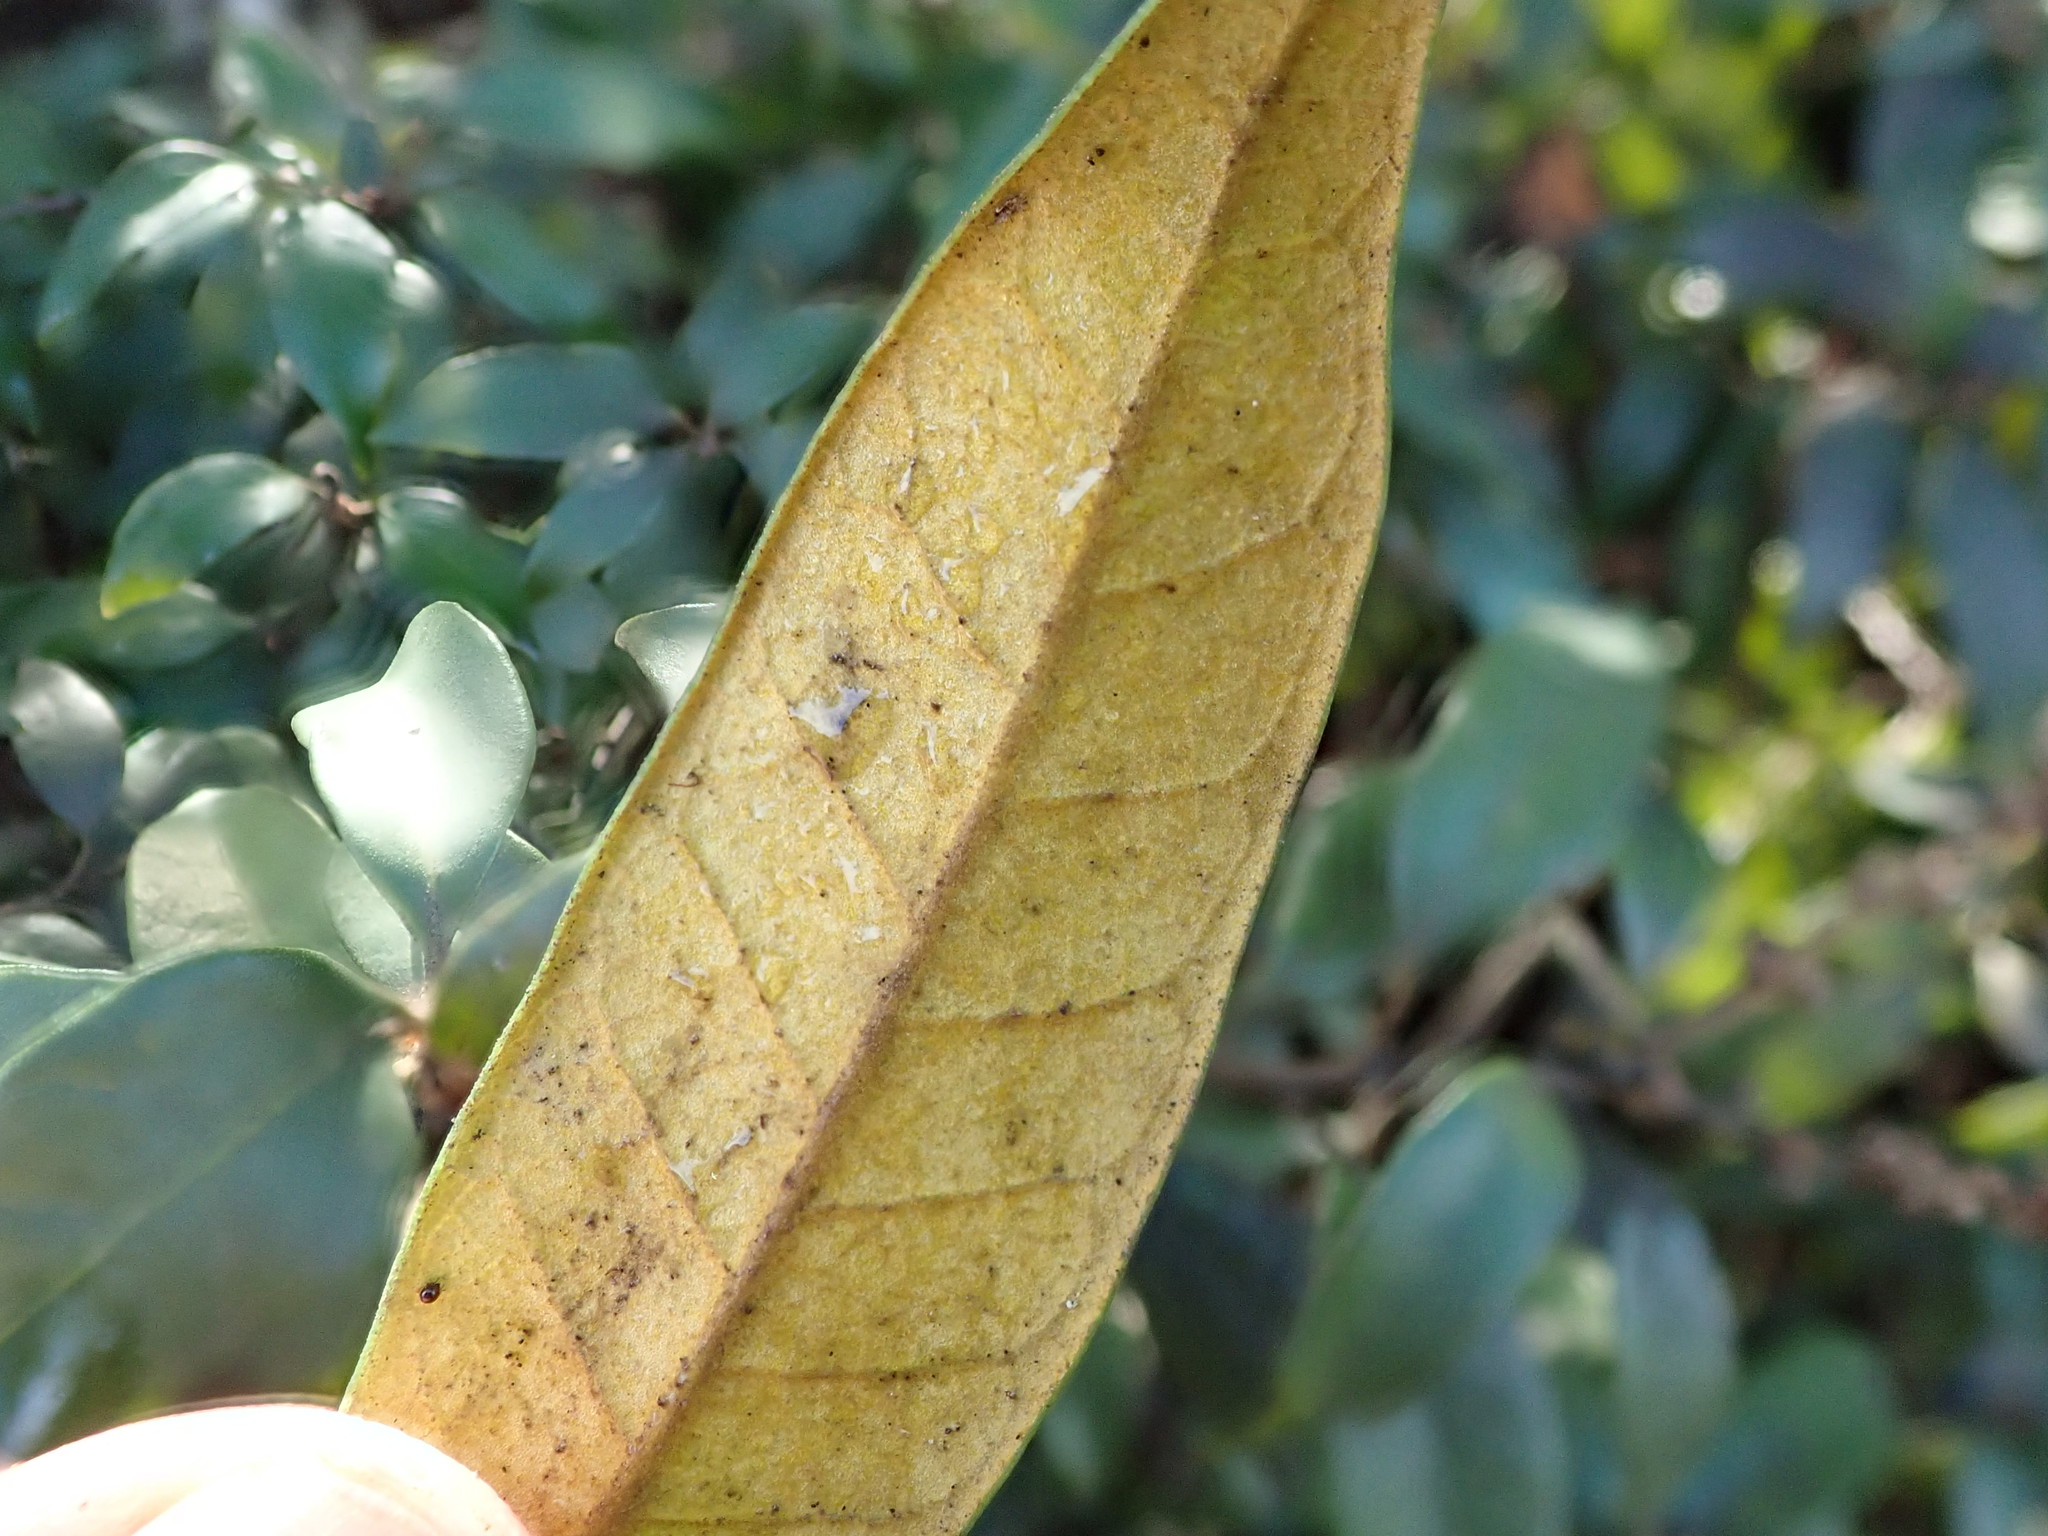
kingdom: Plantae
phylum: Tracheophyta
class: Magnoliopsida
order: Fagales
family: Fagaceae
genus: Chrysolepis
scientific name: Chrysolepis chrysophylla
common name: Giant chinquapin
